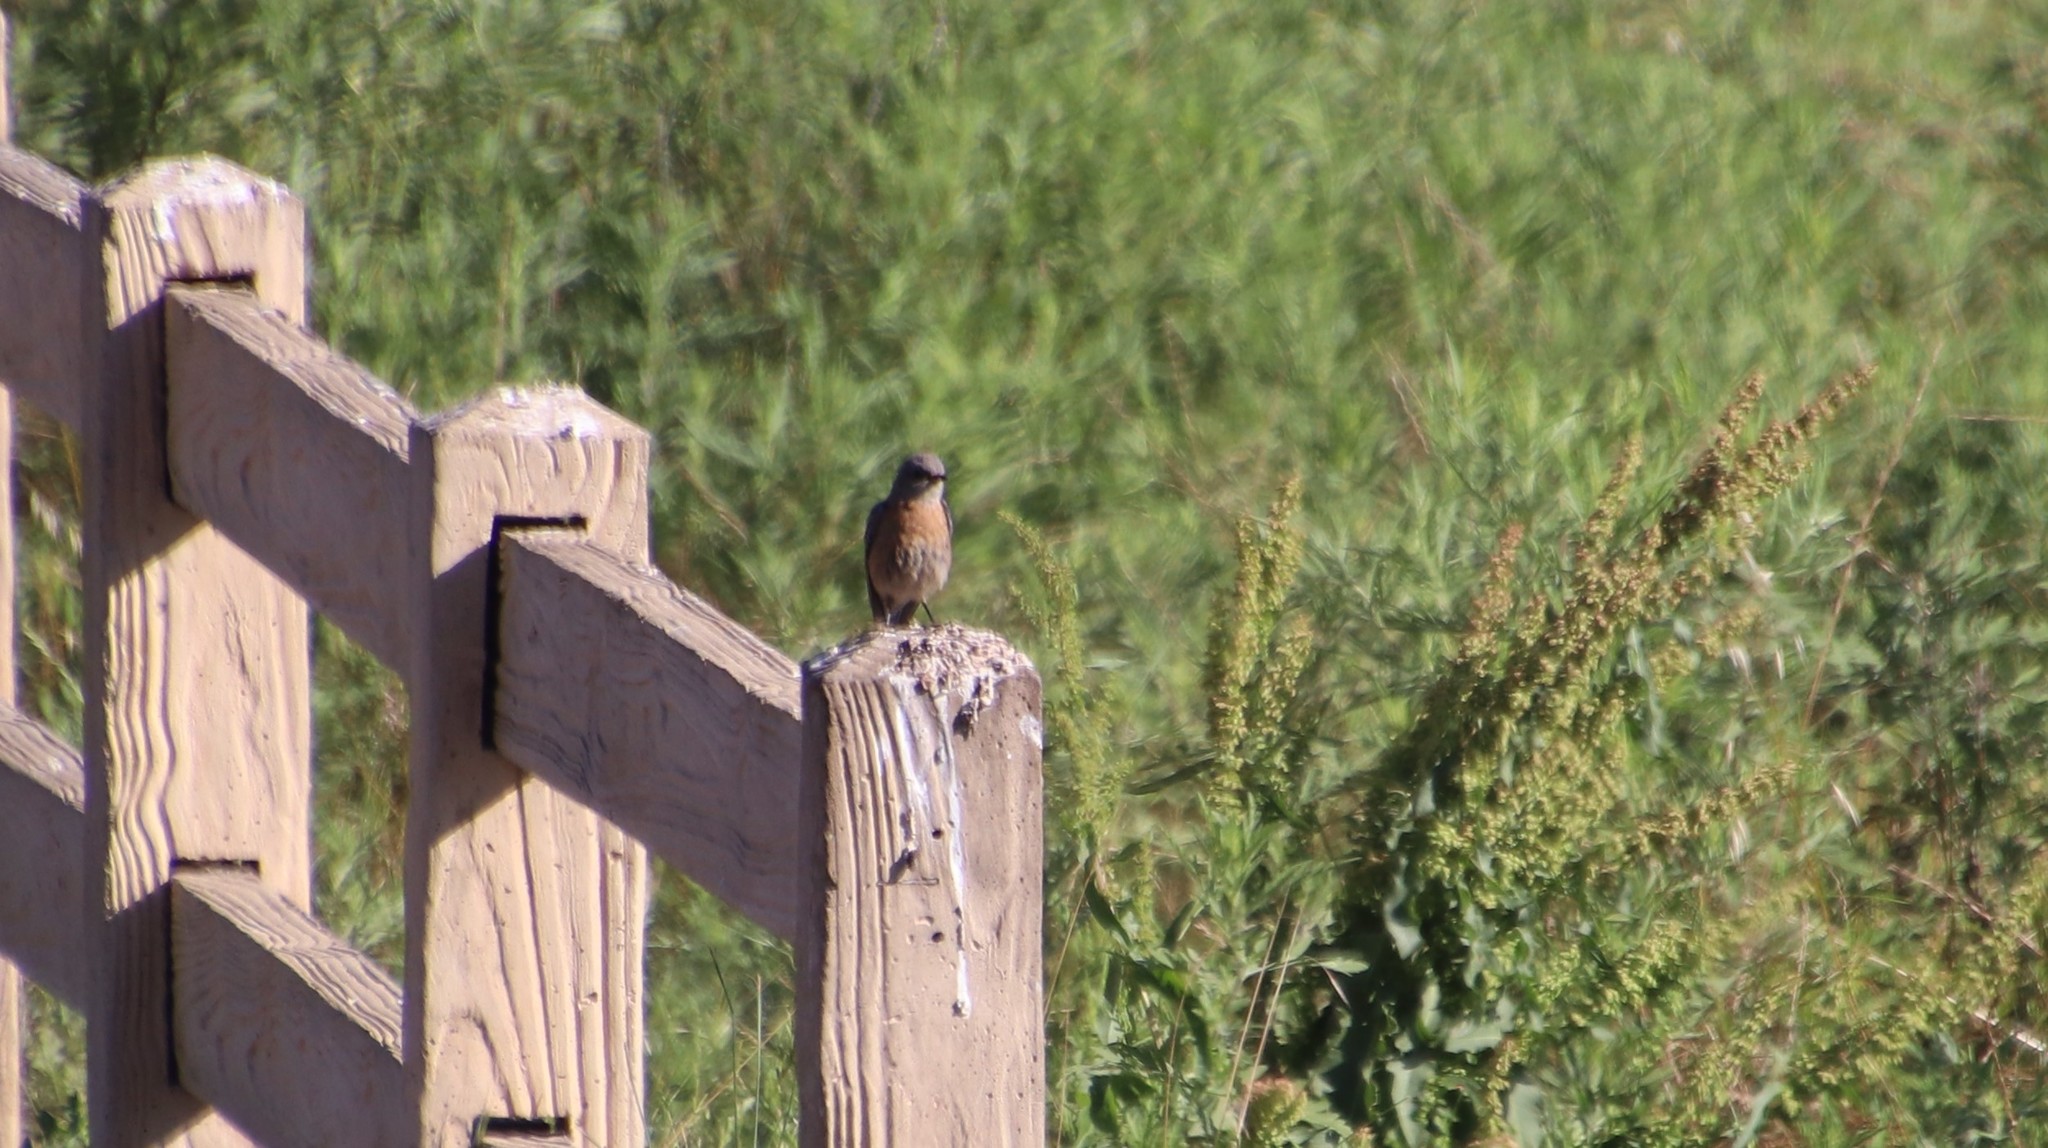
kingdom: Animalia
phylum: Chordata
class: Aves
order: Passeriformes
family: Turdidae
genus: Sialia
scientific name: Sialia mexicana
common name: Western bluebird
